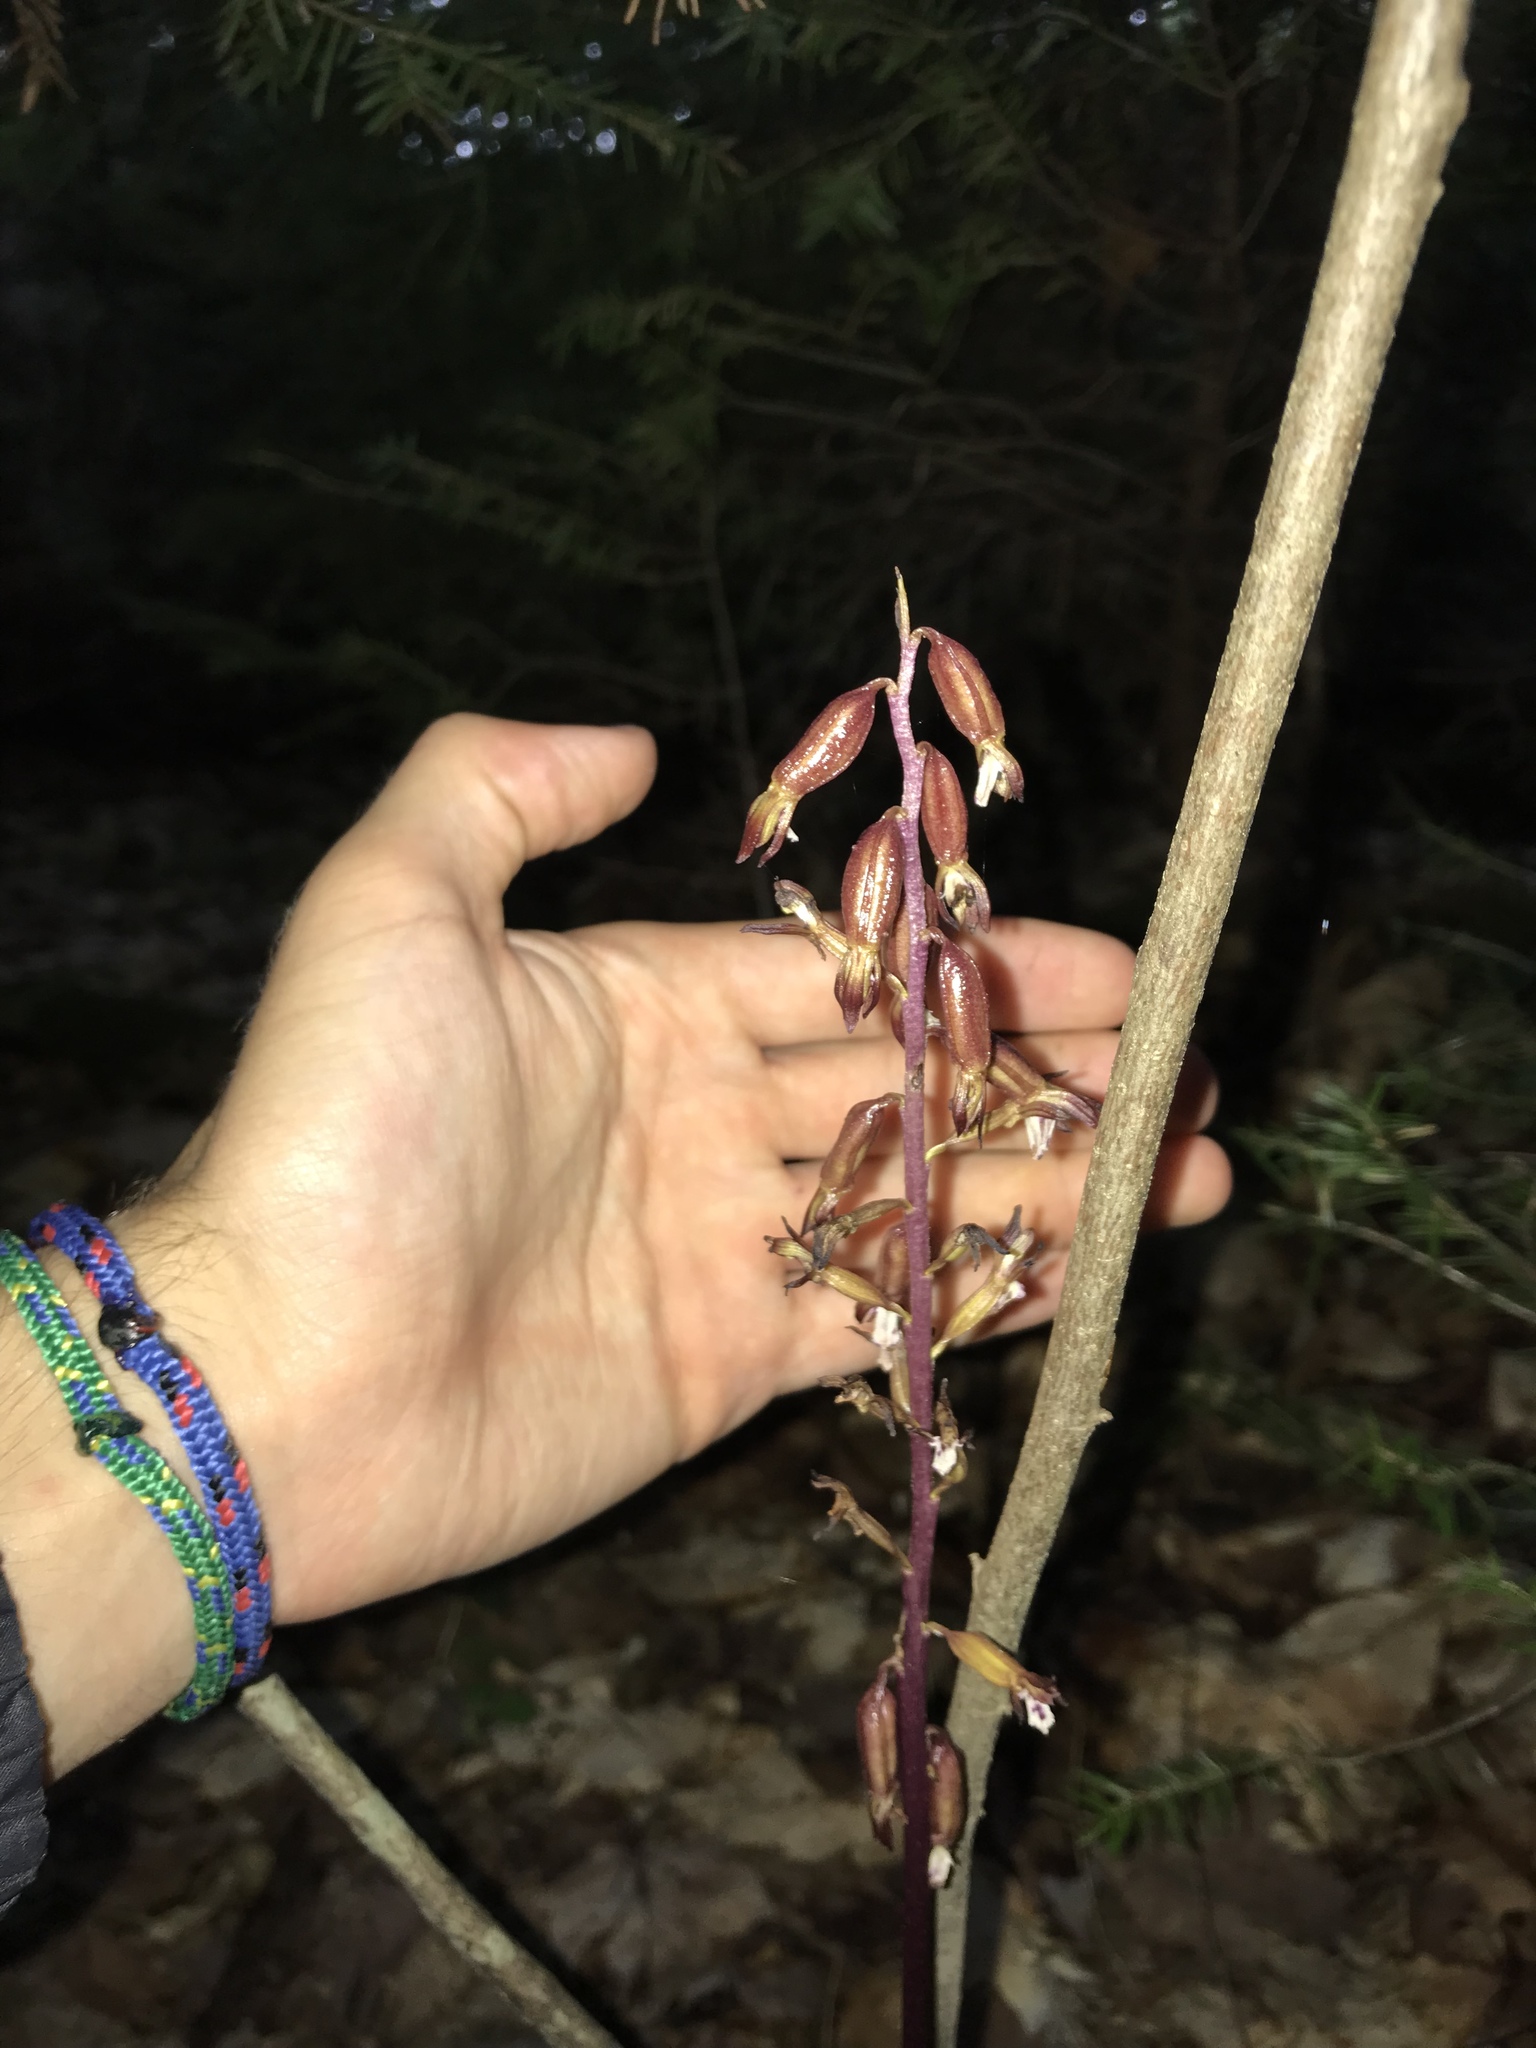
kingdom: Plantae
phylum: Tracheophyta
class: Liliopsida
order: Asparagales
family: Orchidaceae
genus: Corallorhiza
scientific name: Corallorhiza maculata
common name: Spotted coralroot
